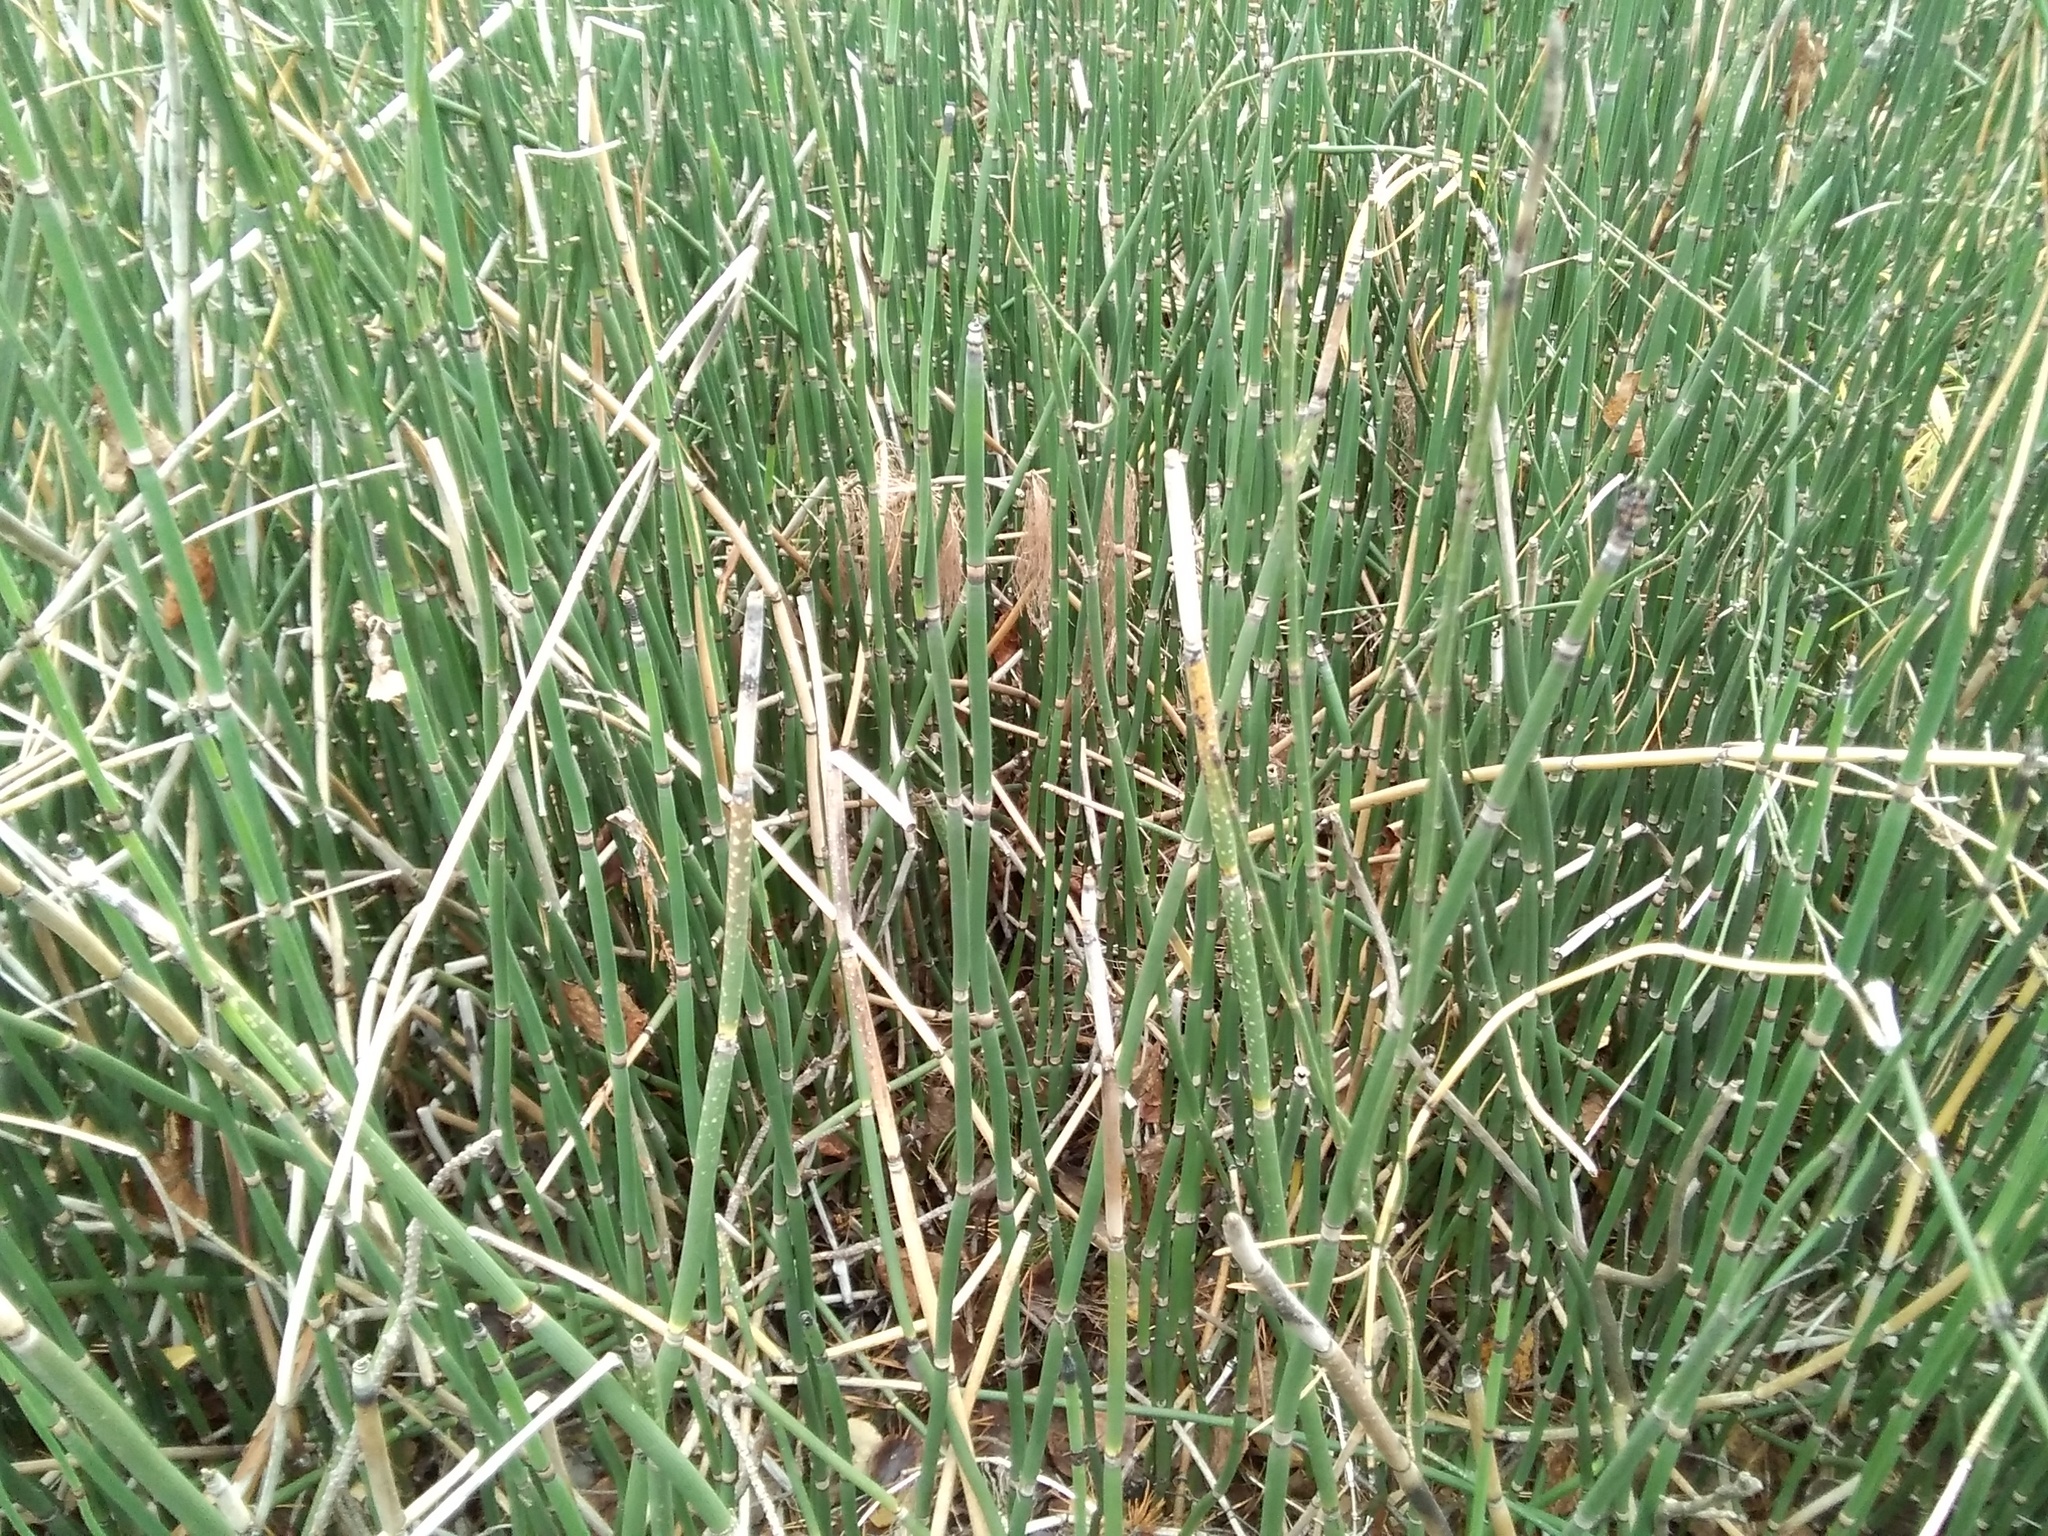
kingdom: Plantae
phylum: Tracheophyta
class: Polypodiopsida
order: Equisetales
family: Equisetaceae
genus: Equisetum
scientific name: Equisetum hyemale
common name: Rough horsetail
